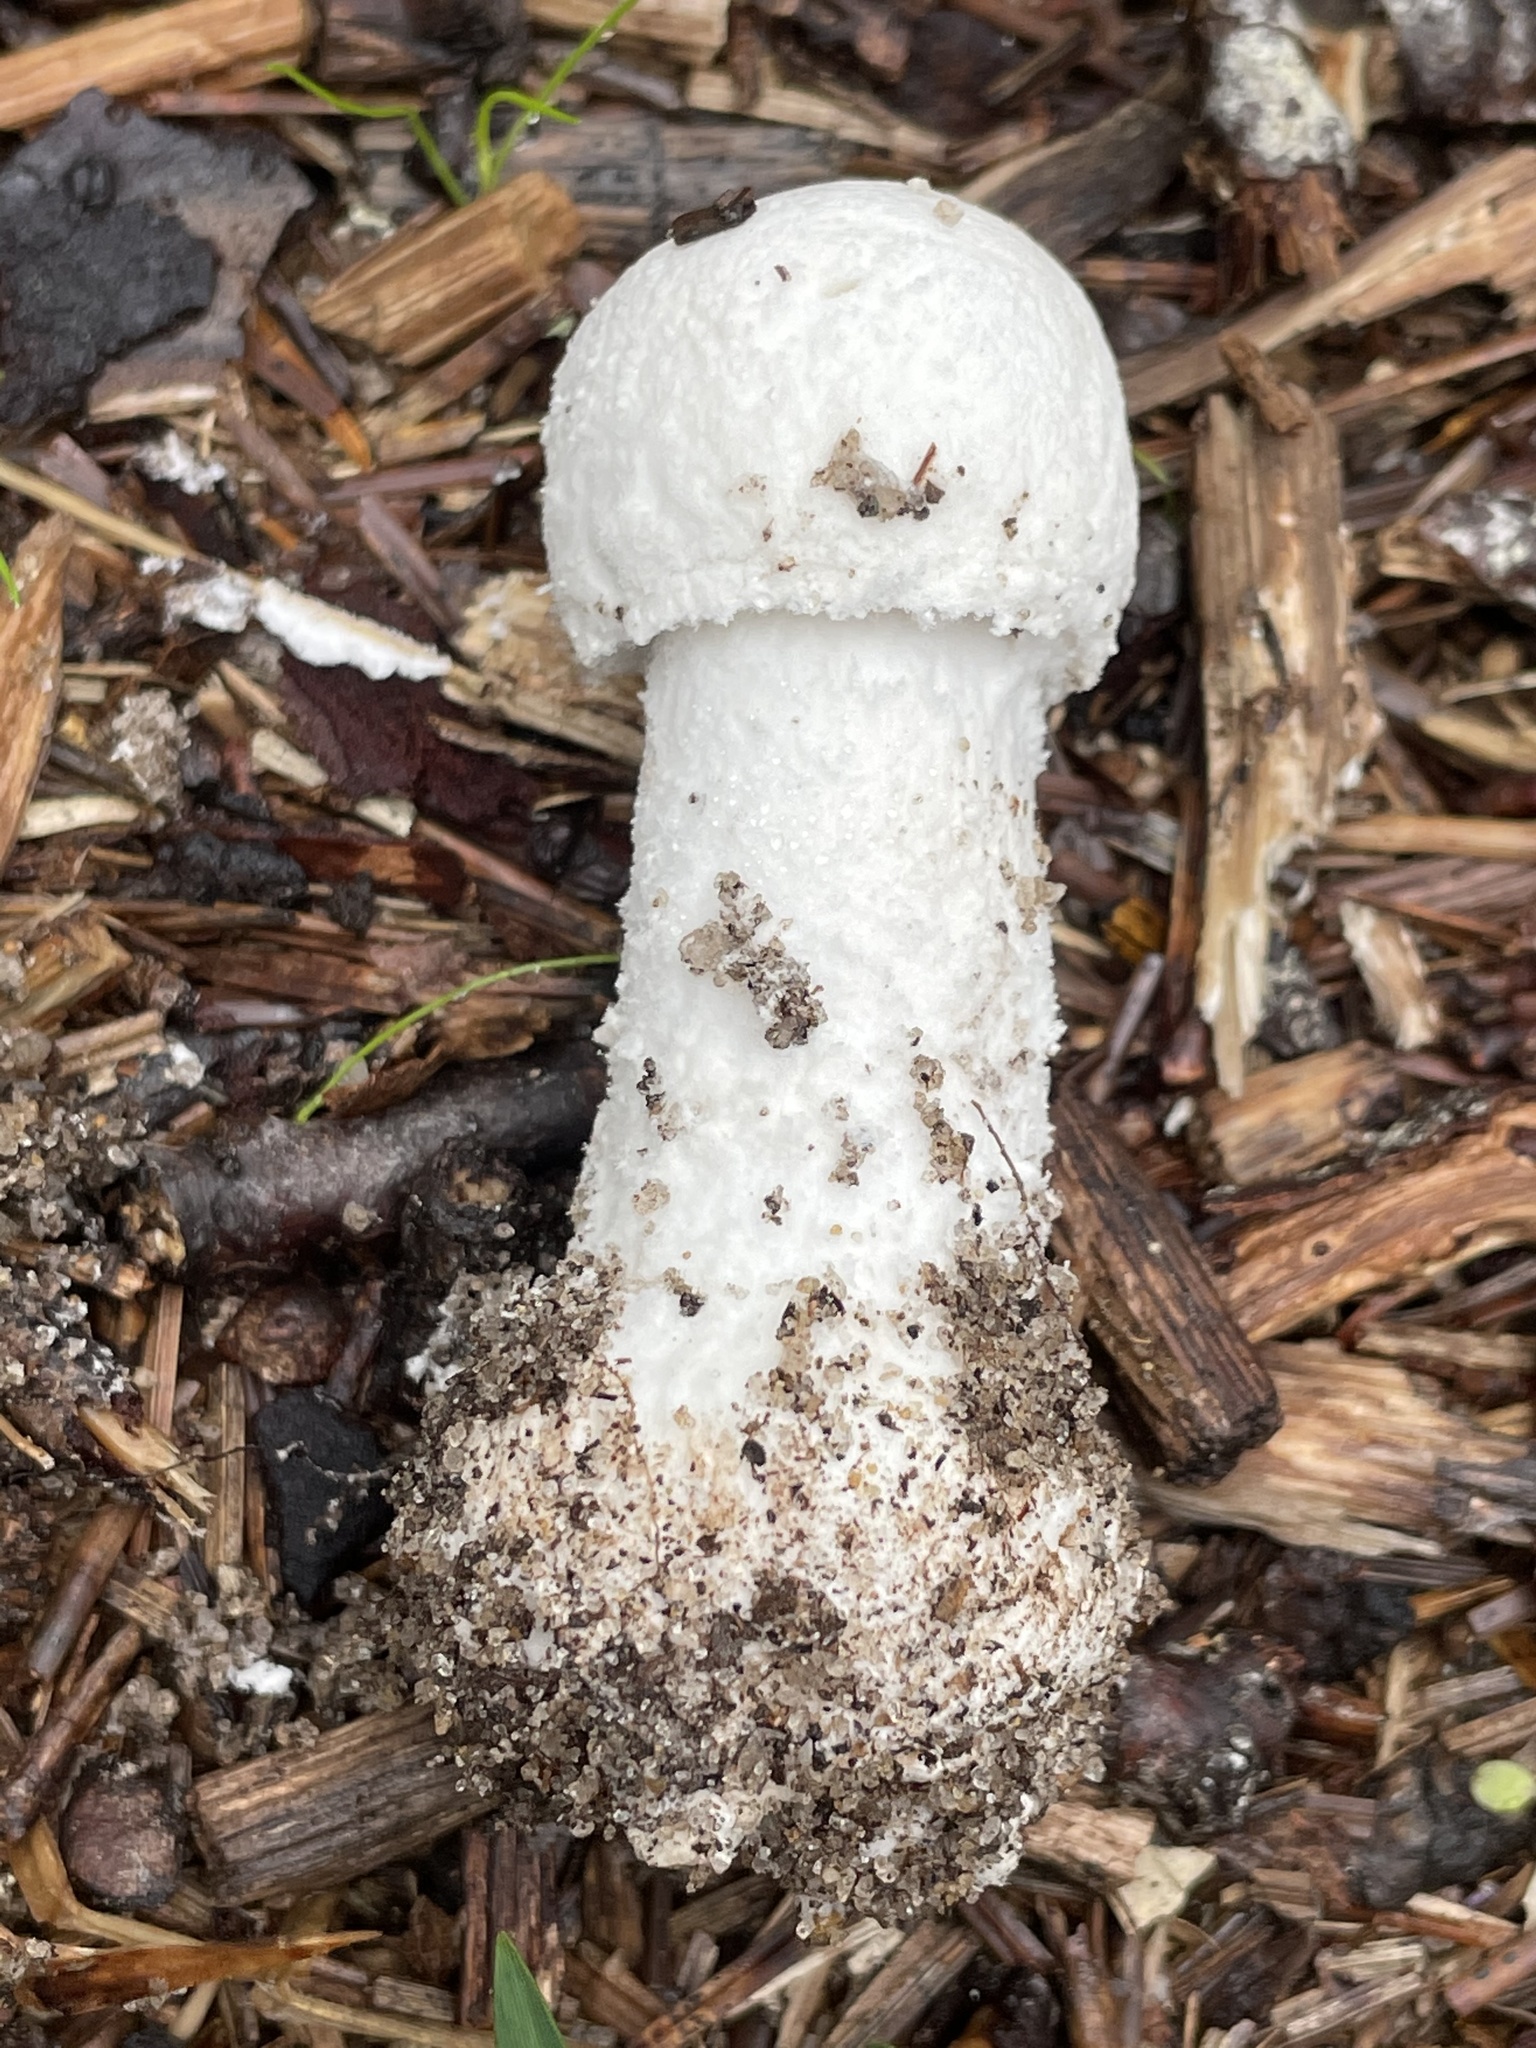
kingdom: Fungi
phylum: Basidiomycota
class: Agaricomycetes
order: Agaricales
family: Amanitaceae
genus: Amanita
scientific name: Amanita polypyramis
